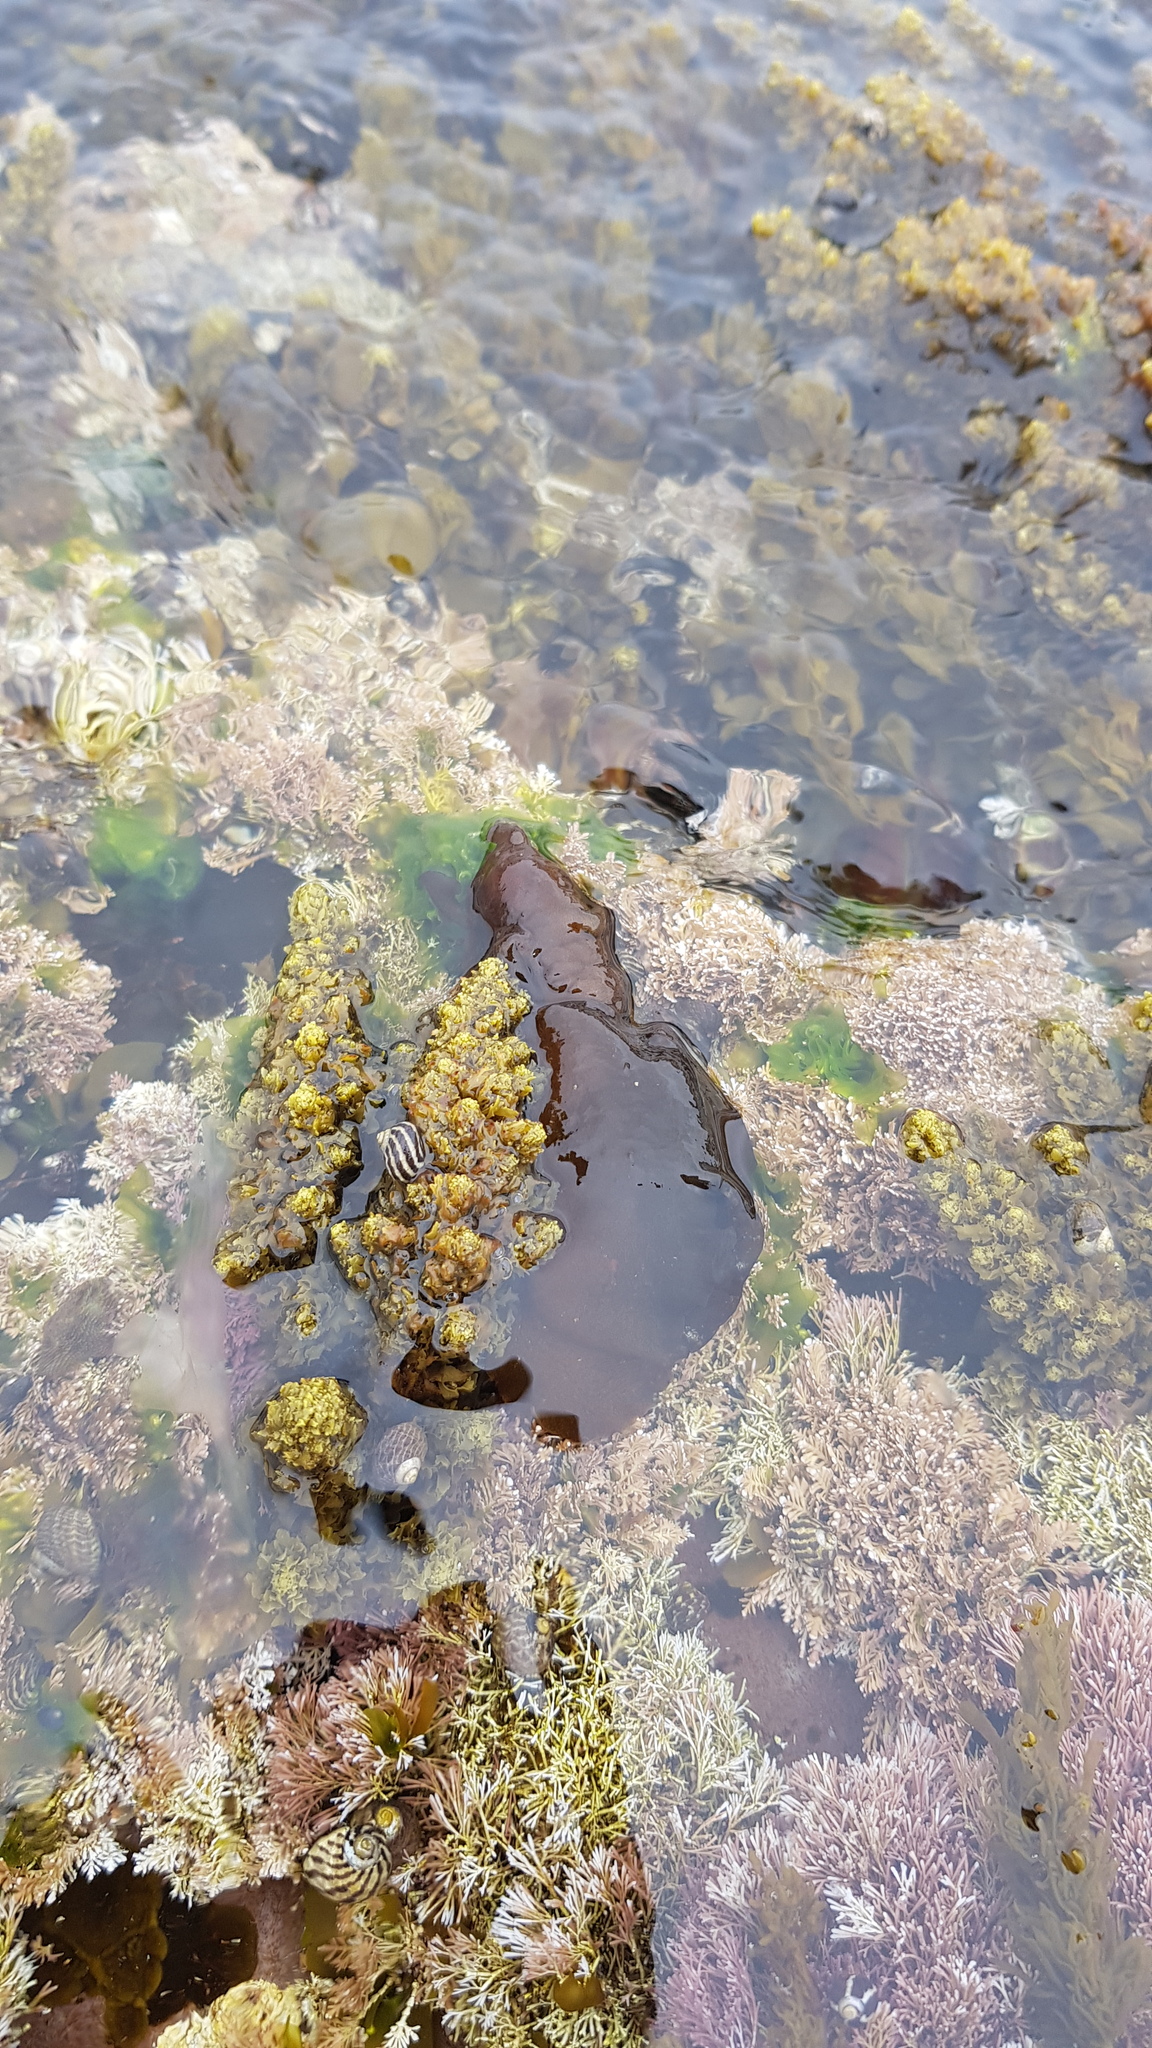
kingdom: Animalia
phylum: Mollusca
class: Gastropoda
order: Aplysiida
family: Aplysiidae
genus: Aplysia
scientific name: Aplysia juliana
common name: Walking sea hare
